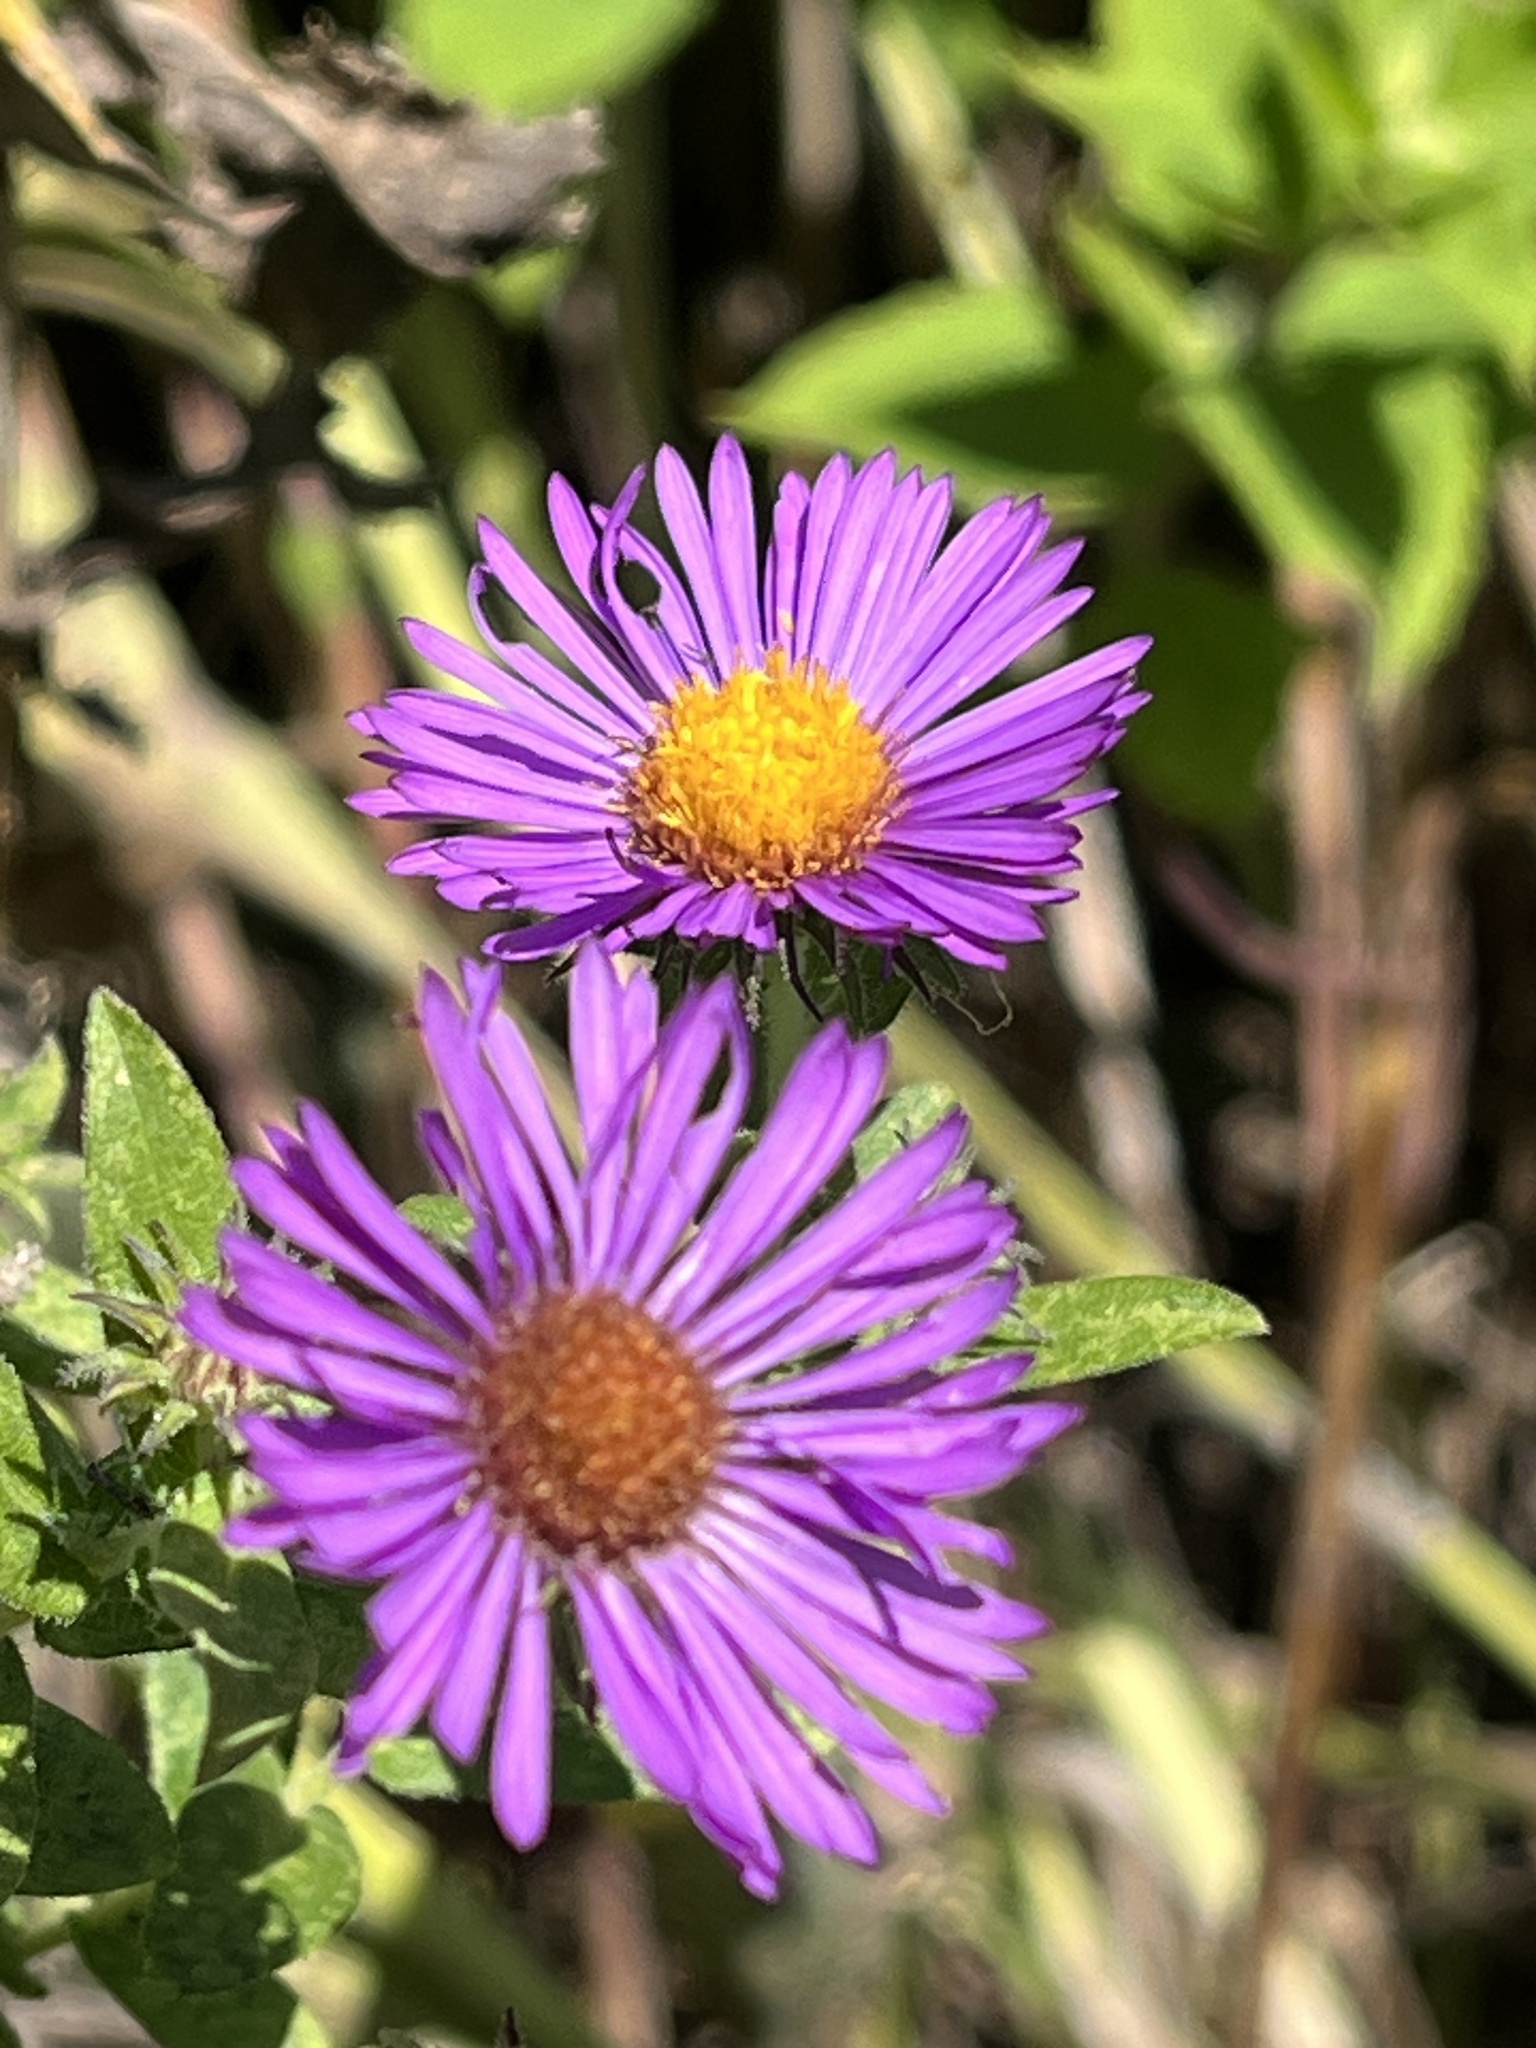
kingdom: Plantae
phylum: Tracheophyta
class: Magnoliopsida
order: Asterales
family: Asteraceae
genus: Symphyotrichum
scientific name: Symphyotrichum novae-angliae
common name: Michaelmas daisy
